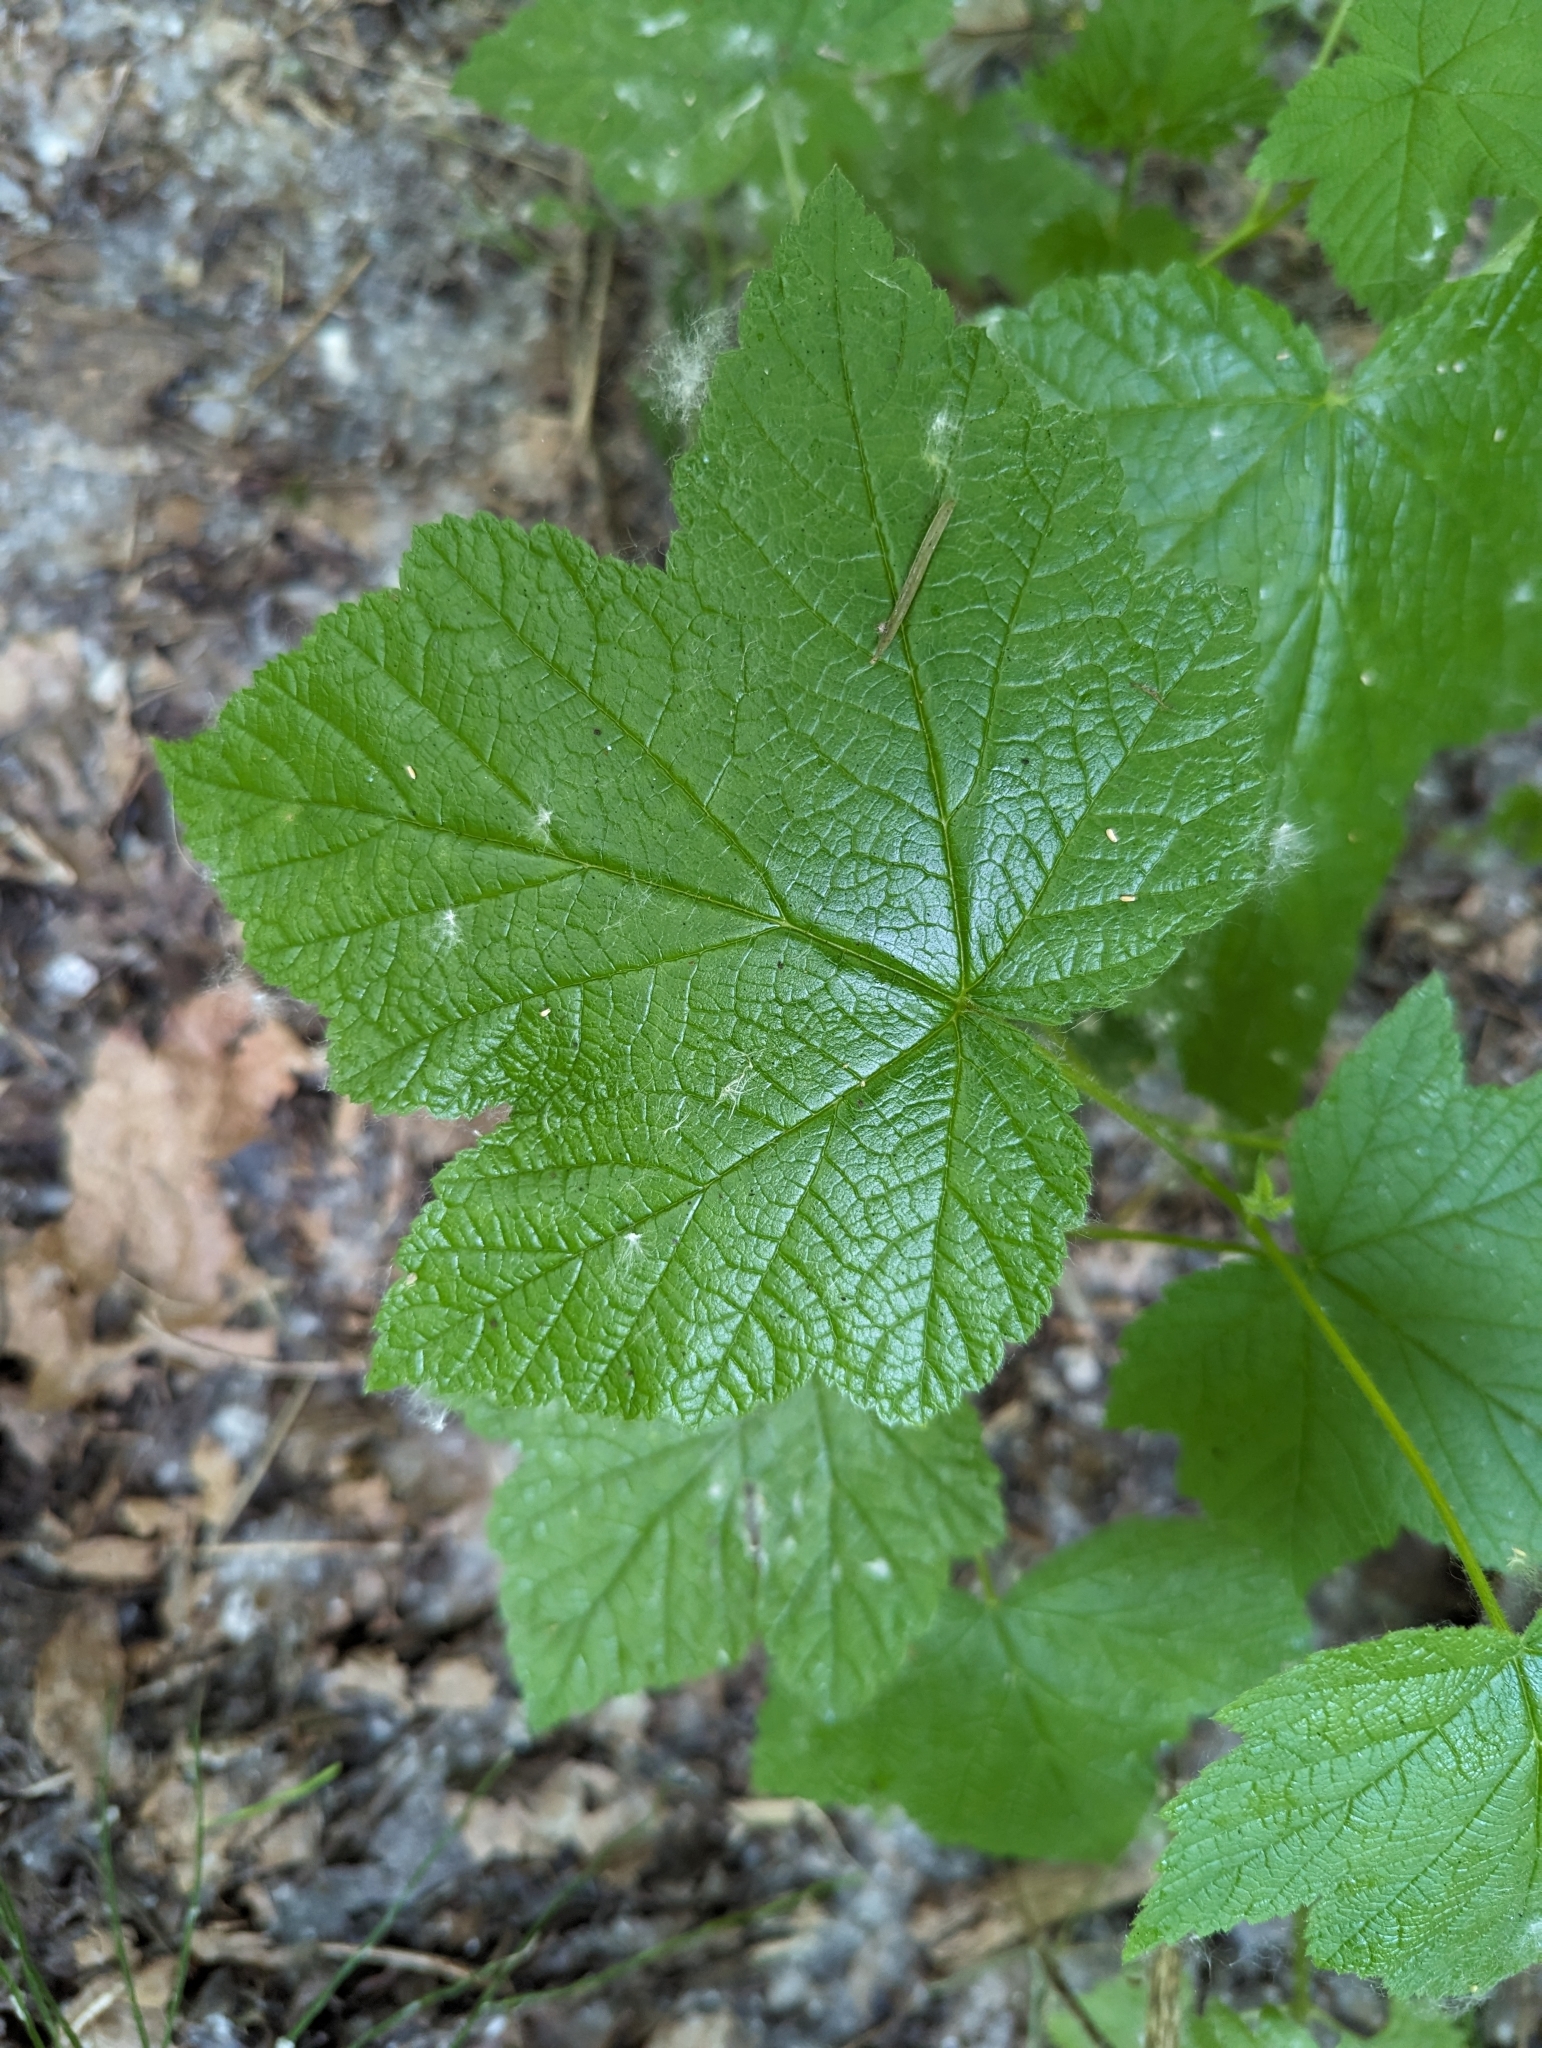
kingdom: Plantae
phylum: Tracheophyta
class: Magnoliopsida
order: Rosales
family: Rosaceae
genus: Rubus
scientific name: Rubus parviflorus
